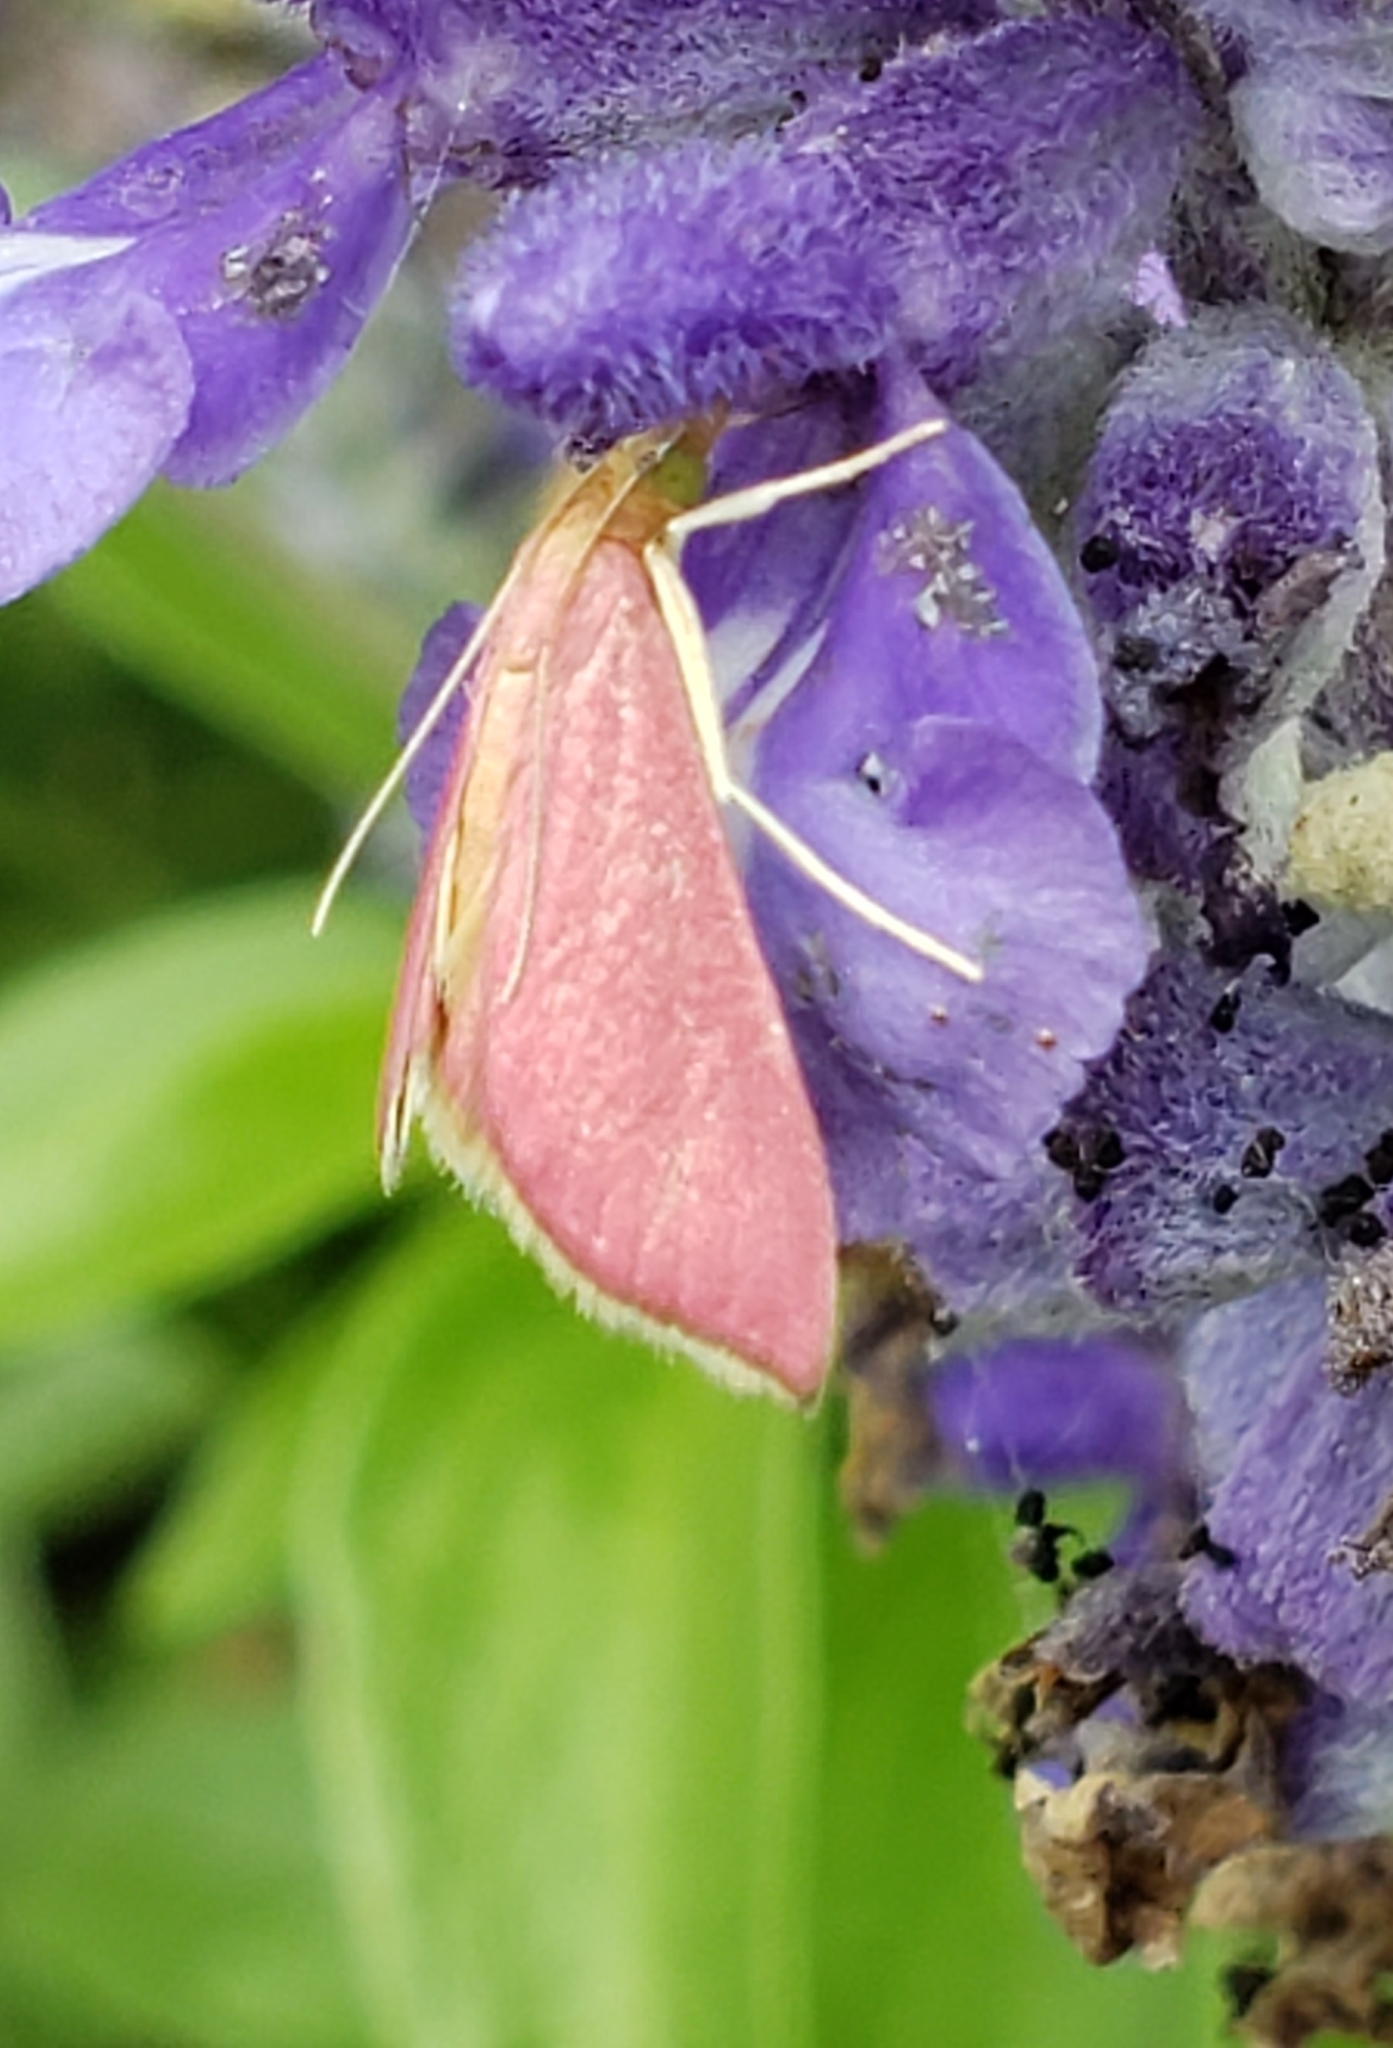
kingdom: Animalia
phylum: Arthropoda
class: Insecta
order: Lepidoptera
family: Crambidae
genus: Pyrausta
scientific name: Pyrausta inornatalis
